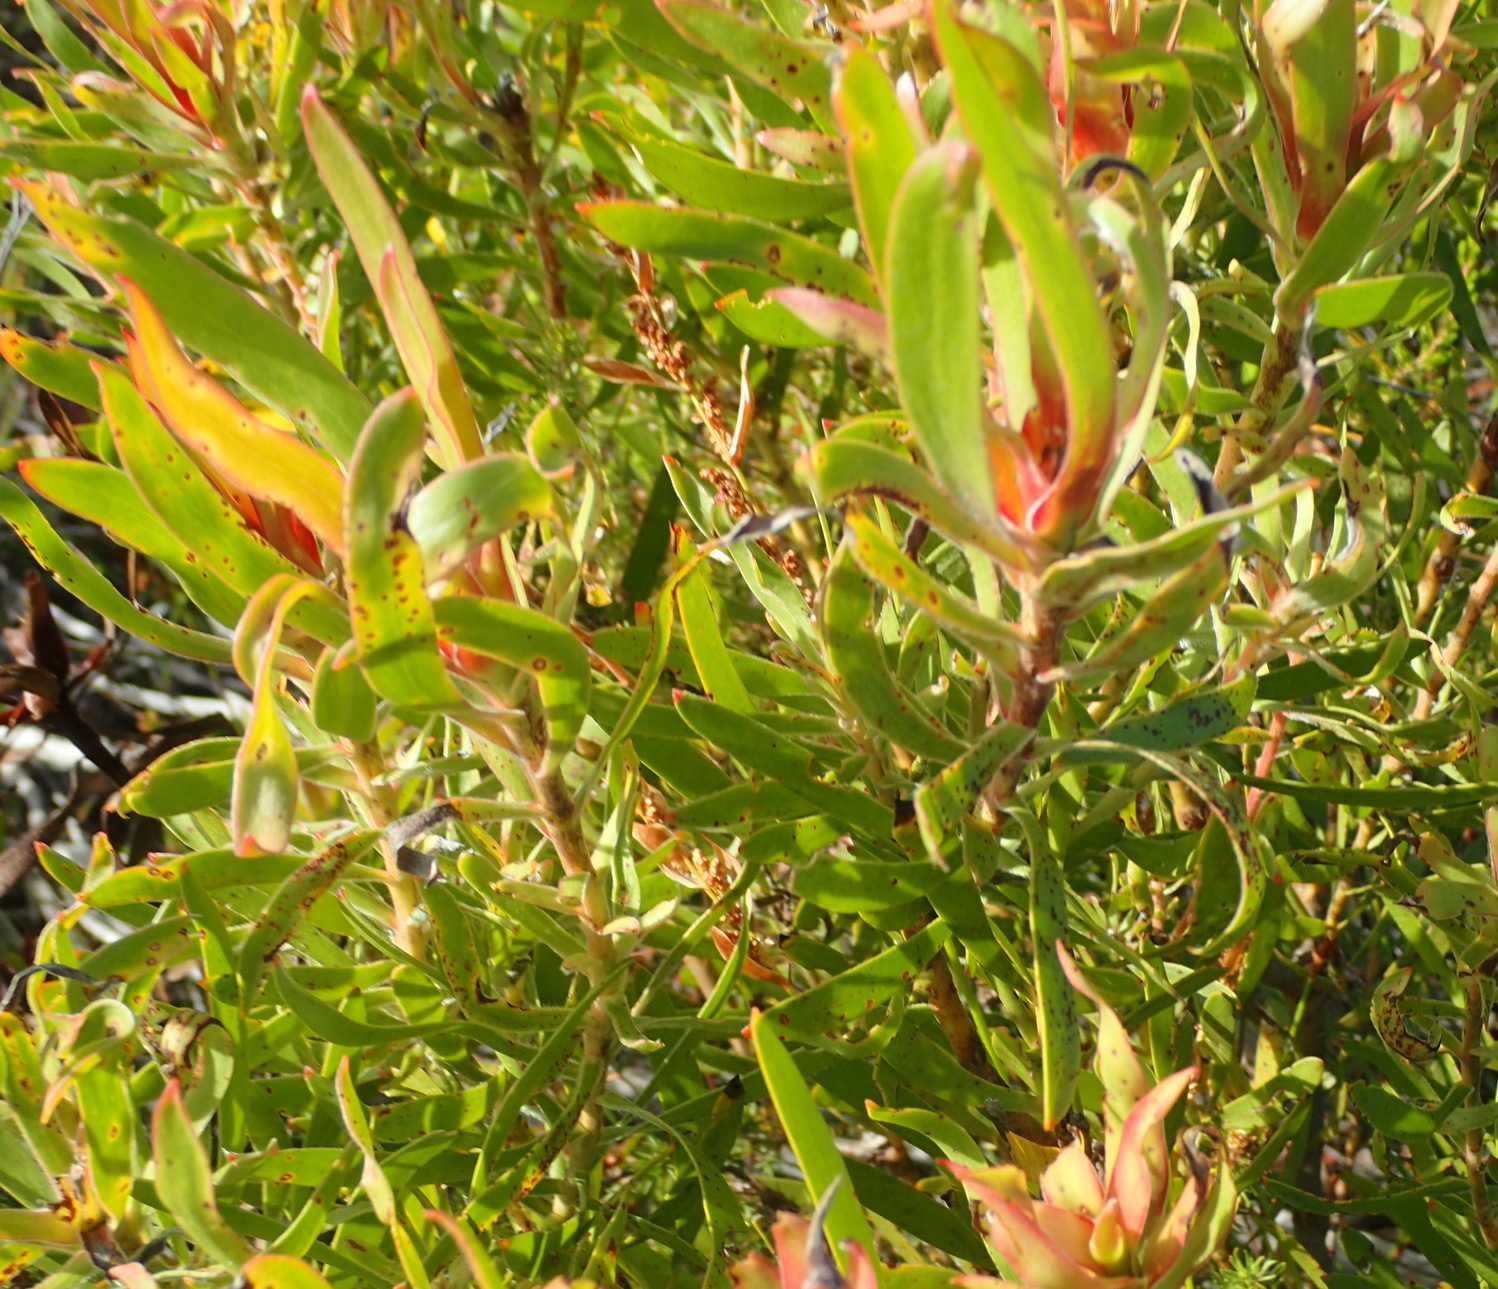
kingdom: Plantae
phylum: Tracheophyta
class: Magnoliopsida
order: Proteales
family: Proteaceae
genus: Leucadendron
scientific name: Leucadendron meridianum
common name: Limestone conebush
